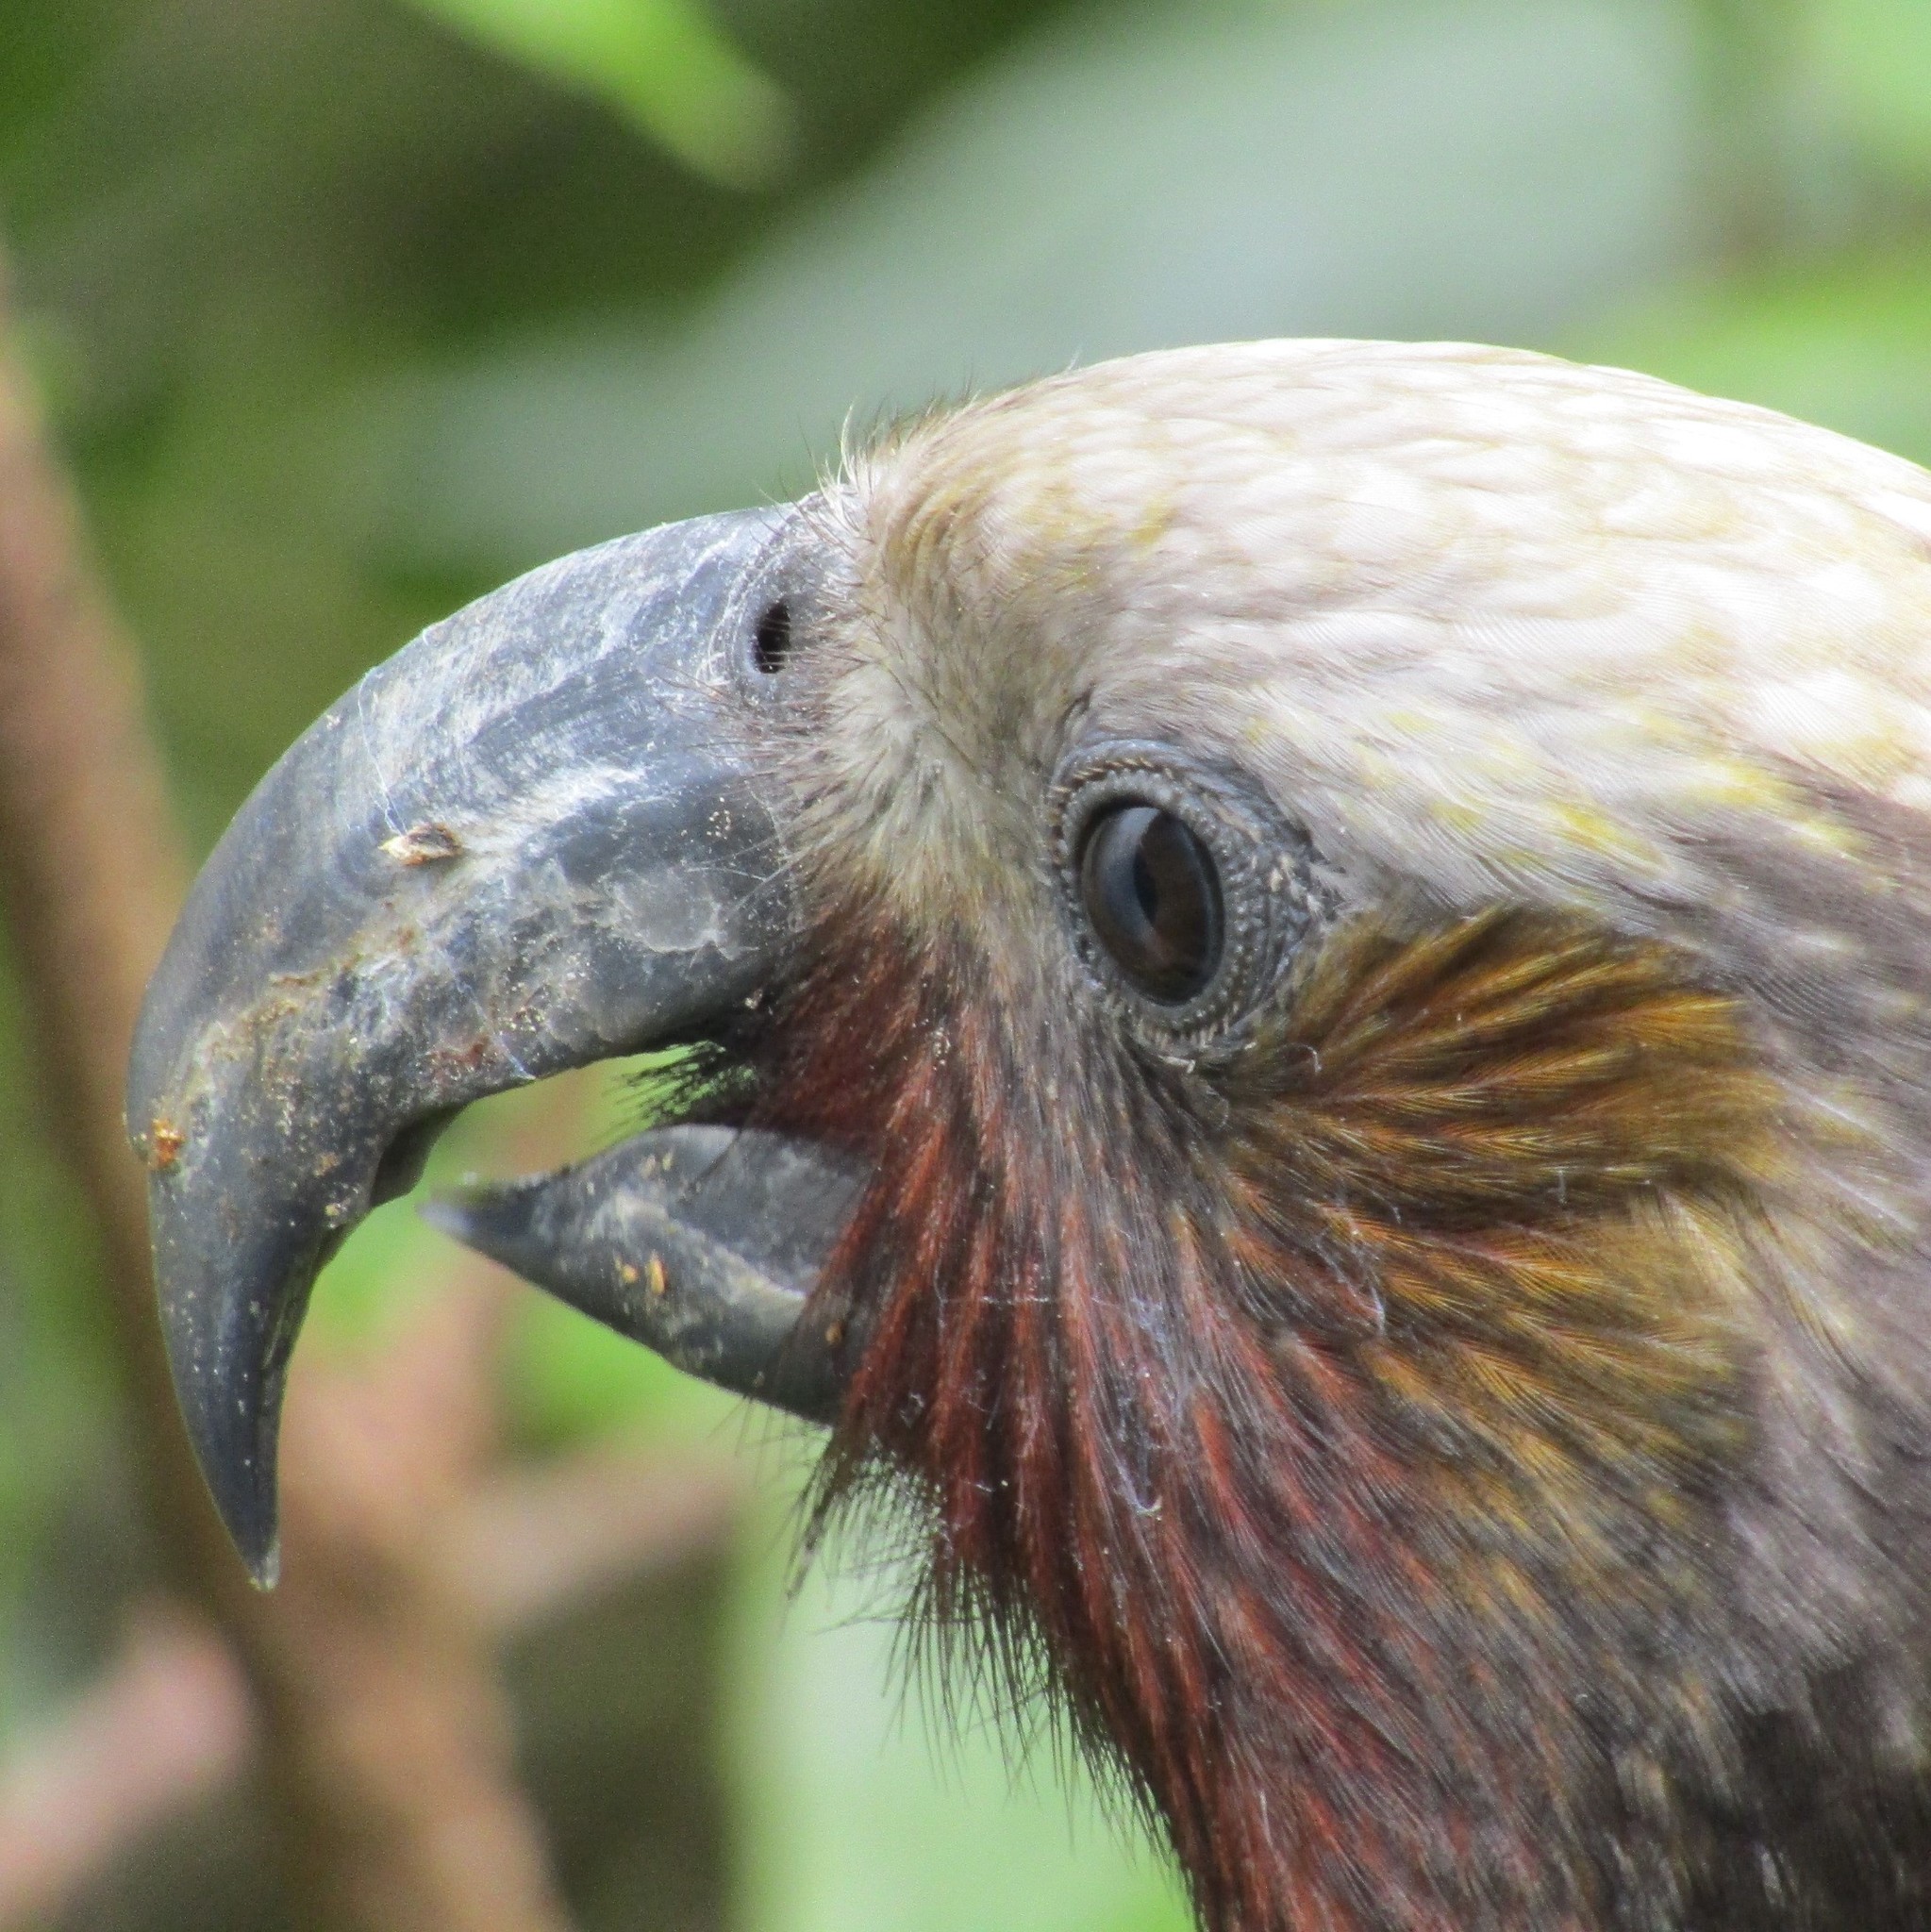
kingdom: Animalia
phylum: Chordata
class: Aves
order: Psittaciformes
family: Psittacidae
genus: Nestor
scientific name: Nestor meridionalis
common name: New zealand kaka
